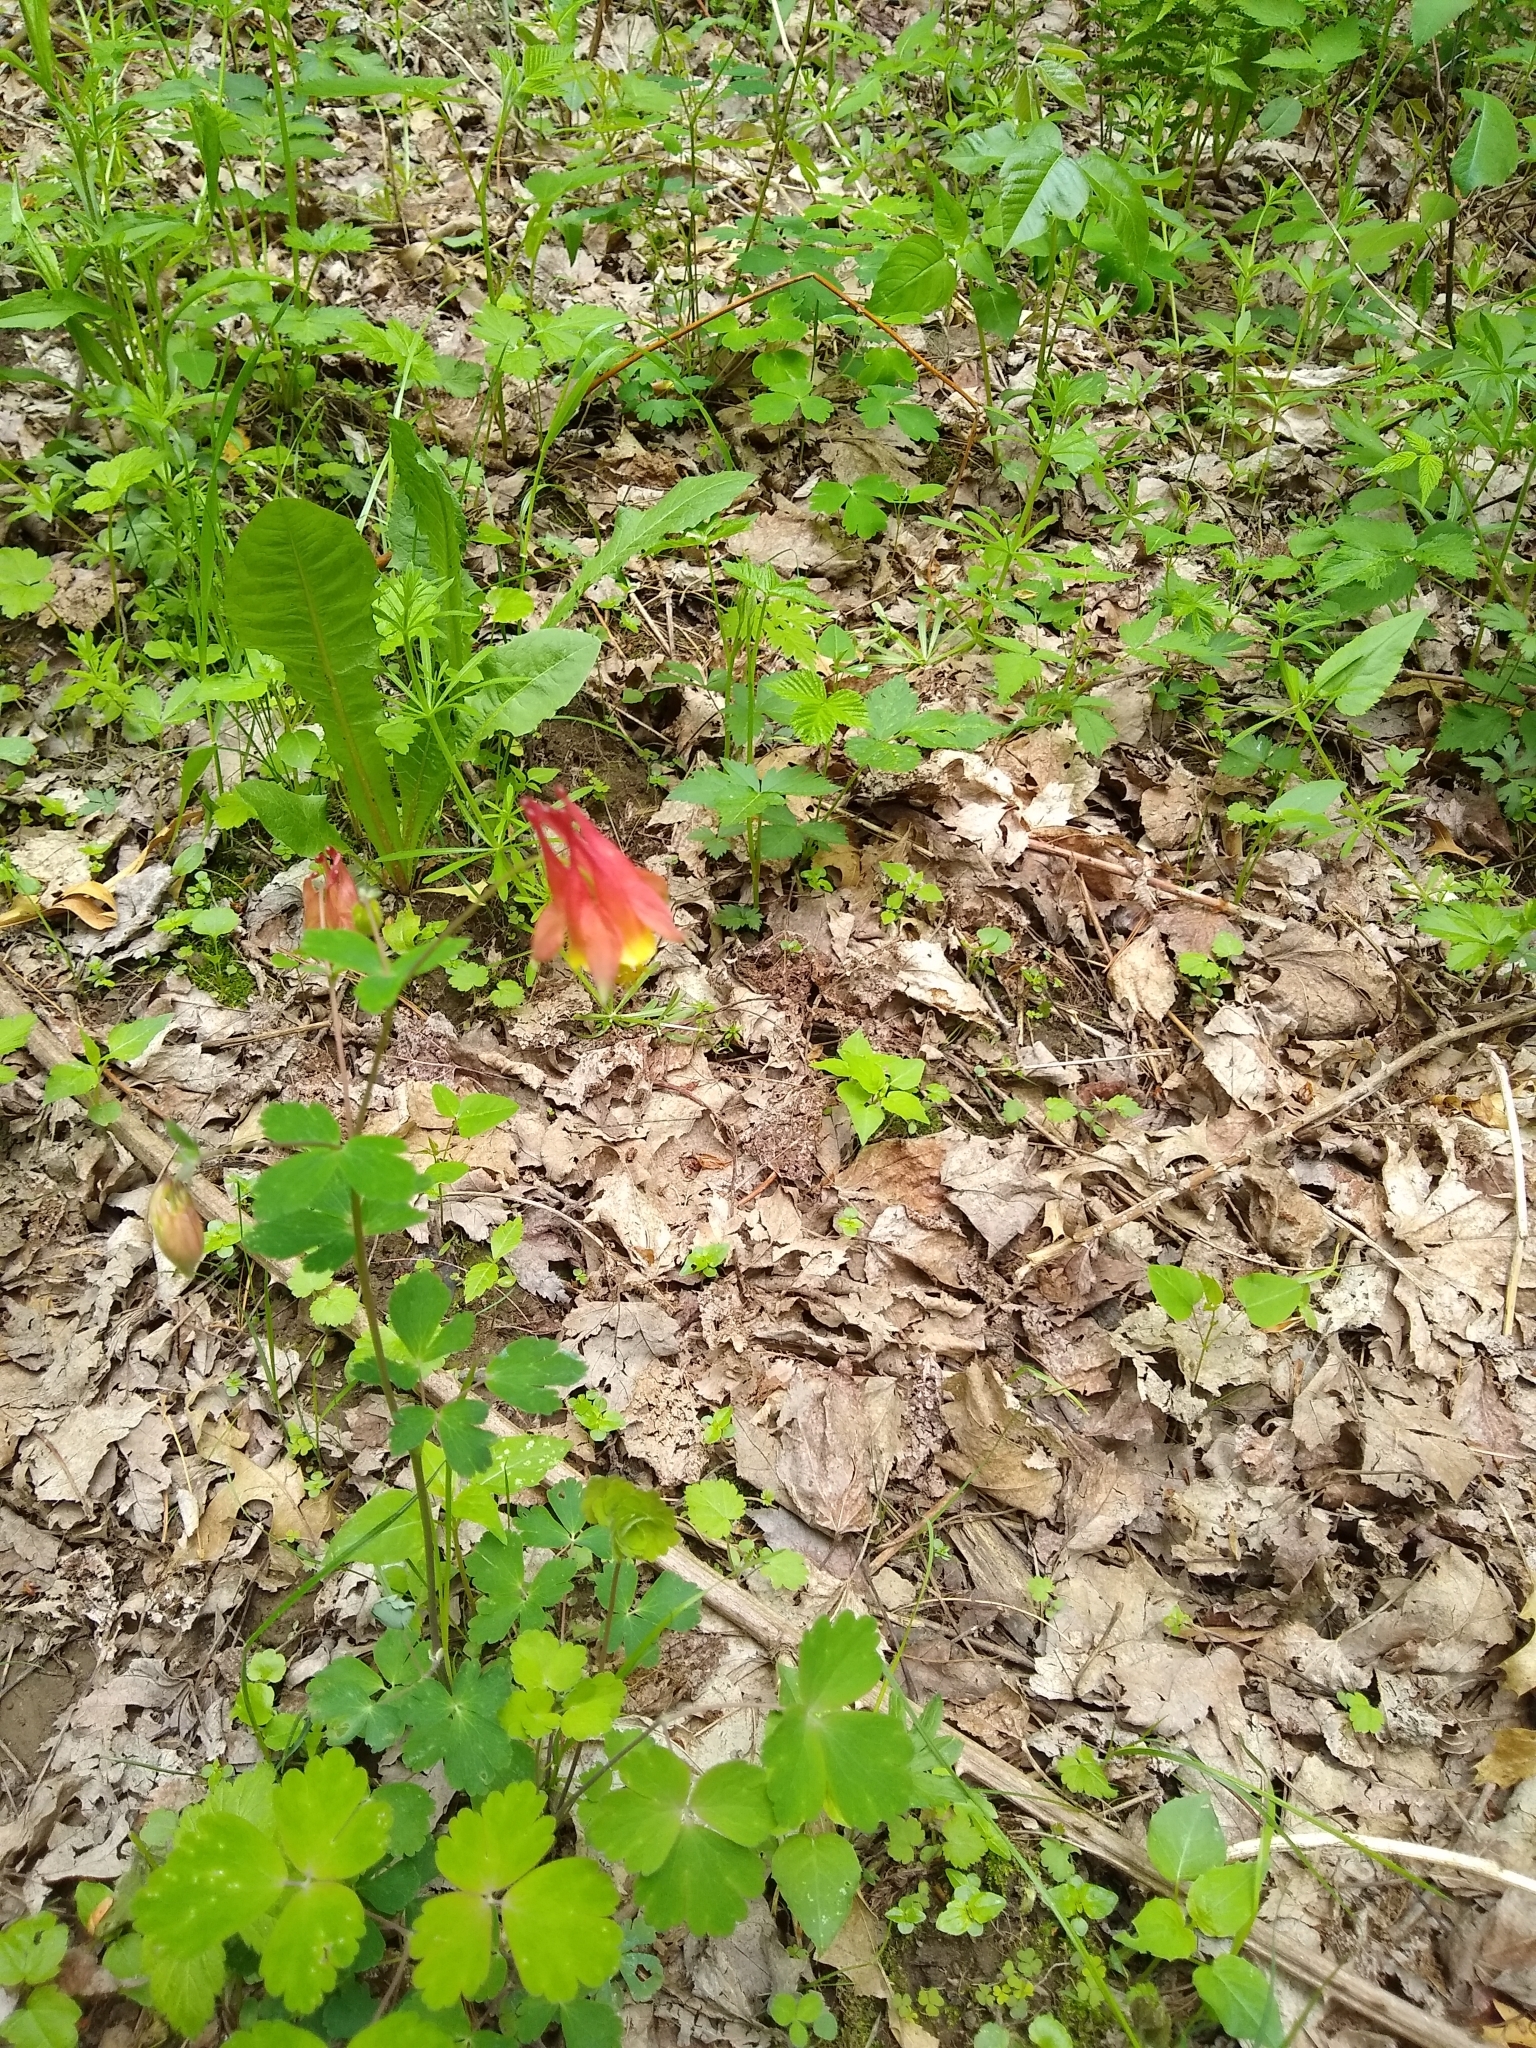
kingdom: Plantae
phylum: Tracheophyta
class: Magnoliopsida
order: Ranunculales
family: Ranunculaceae
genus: Aquilegia
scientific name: Aquilegia canadensis
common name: American columbine
